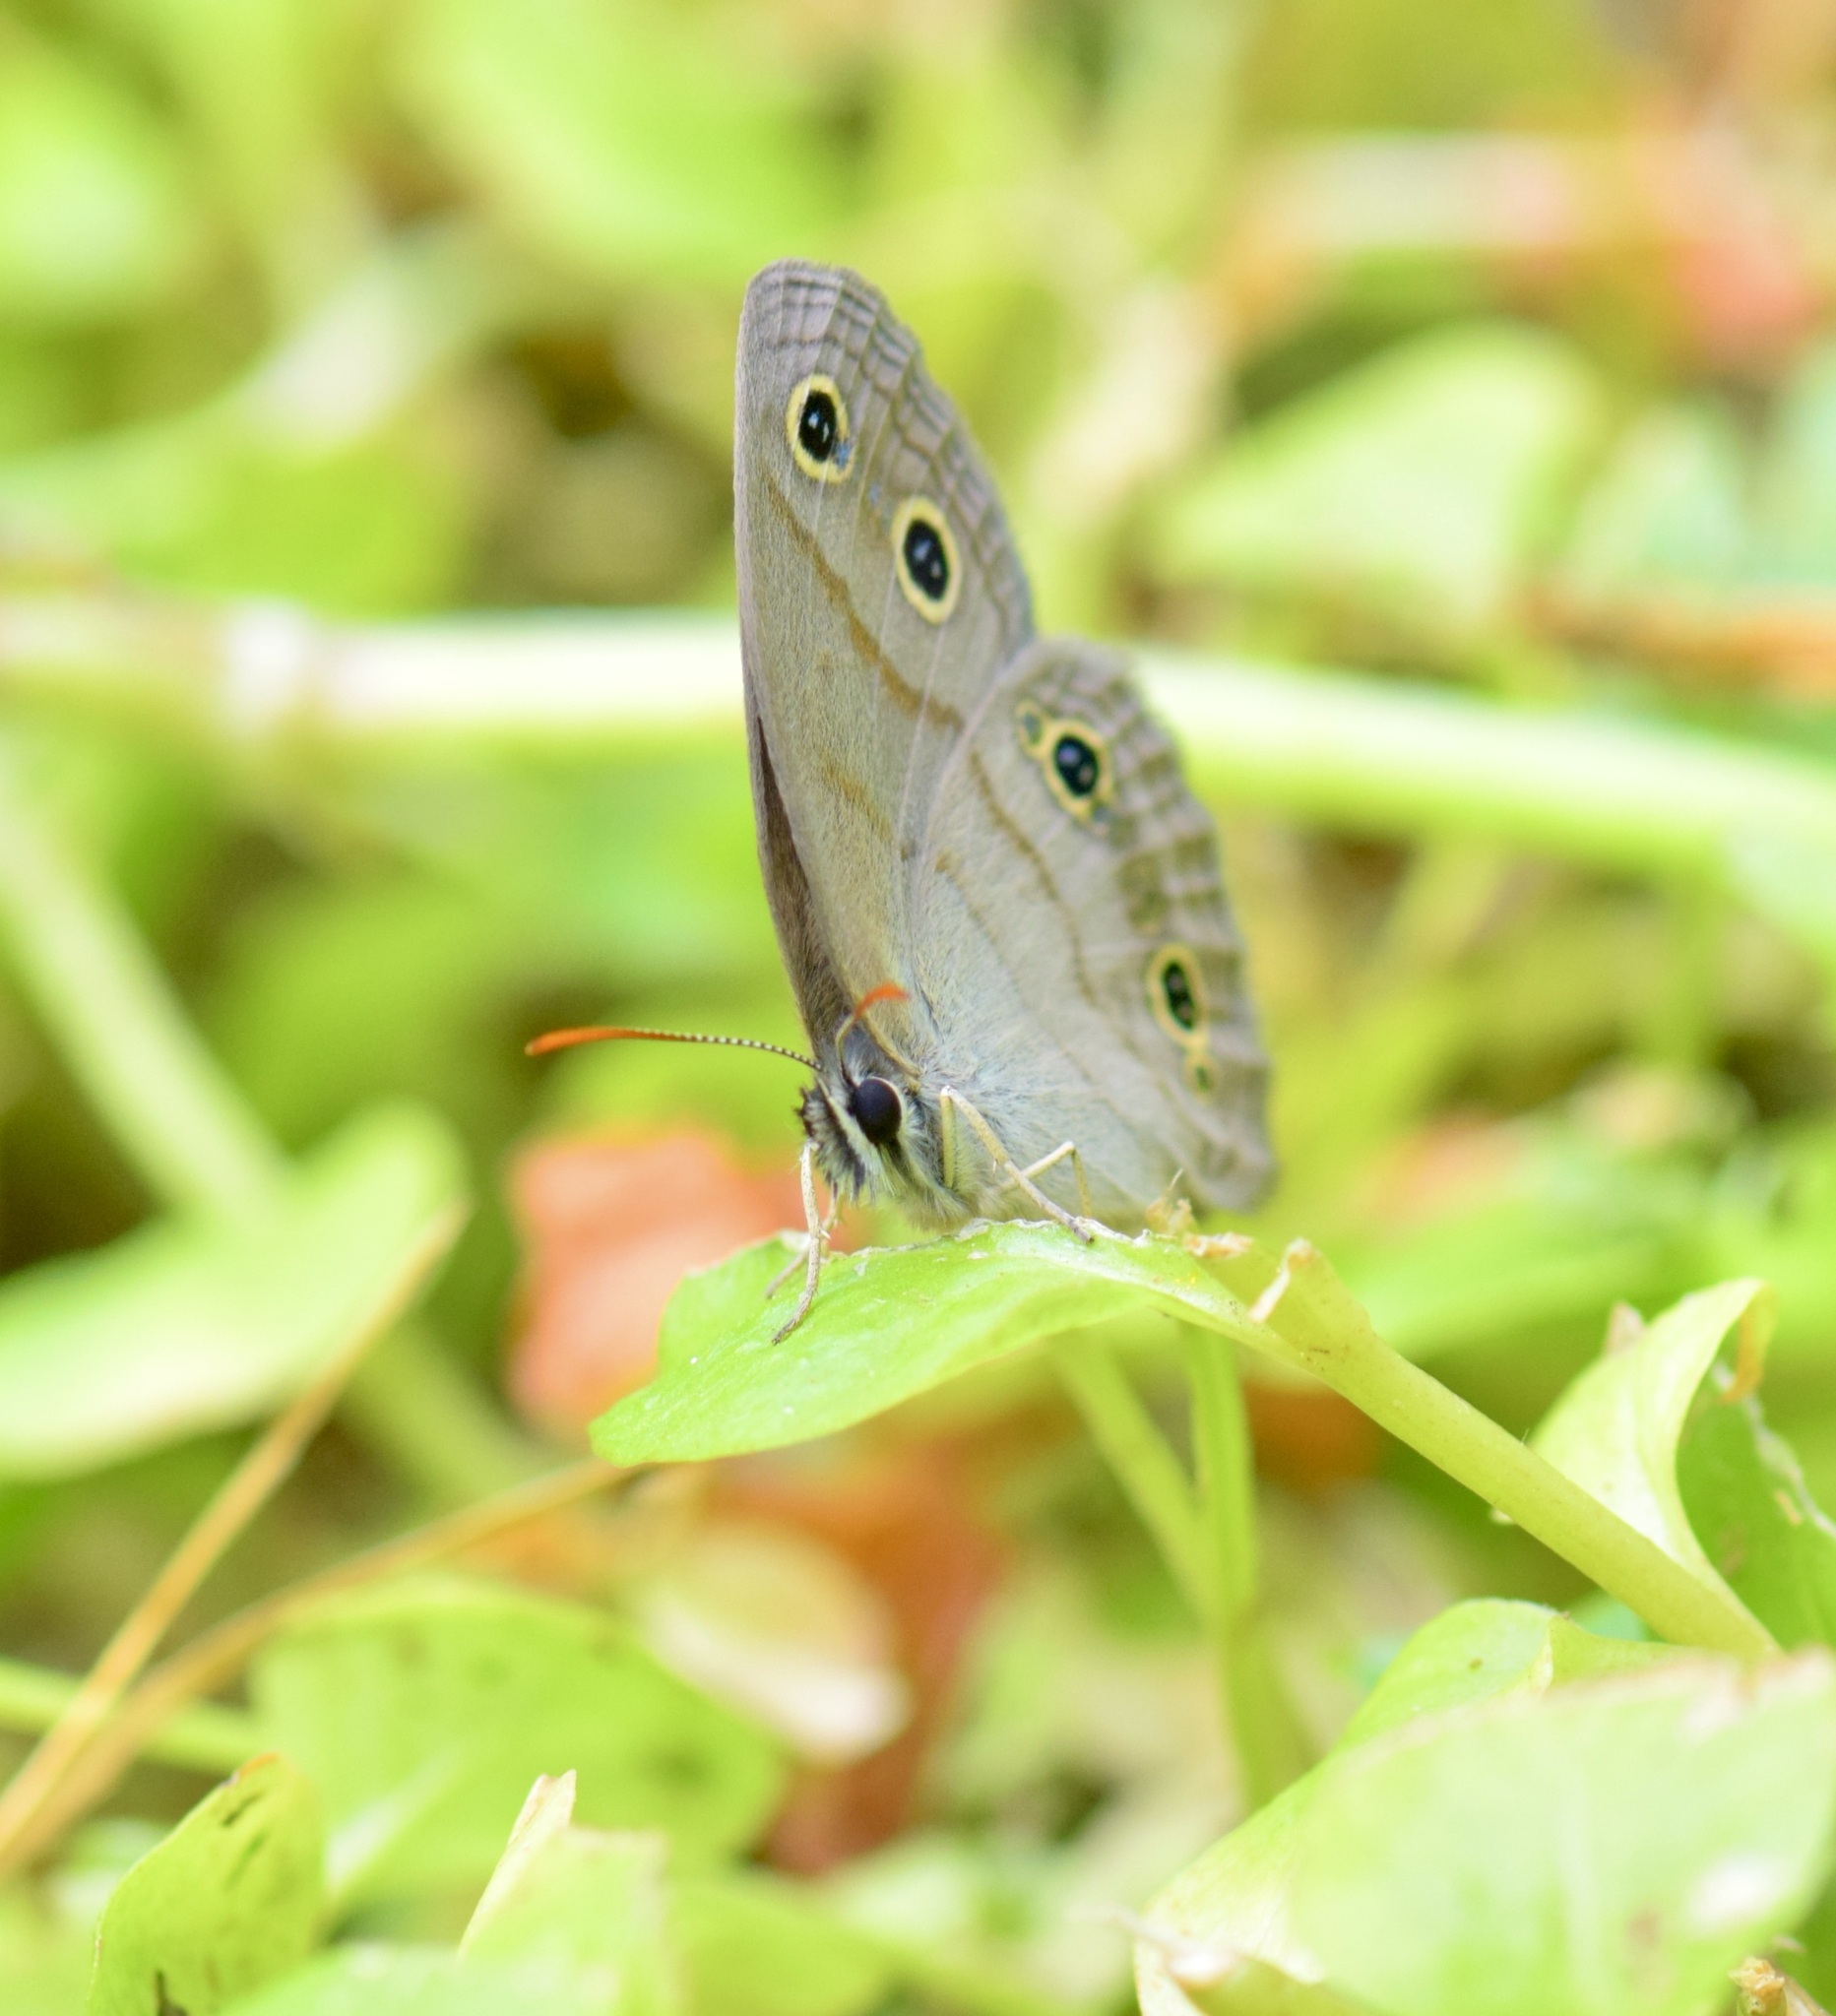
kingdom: Animalia
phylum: Arthropoda
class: Insecta
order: Lepidoptera
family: Nymphalidae
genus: Euptychia
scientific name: Euptychia cymela
